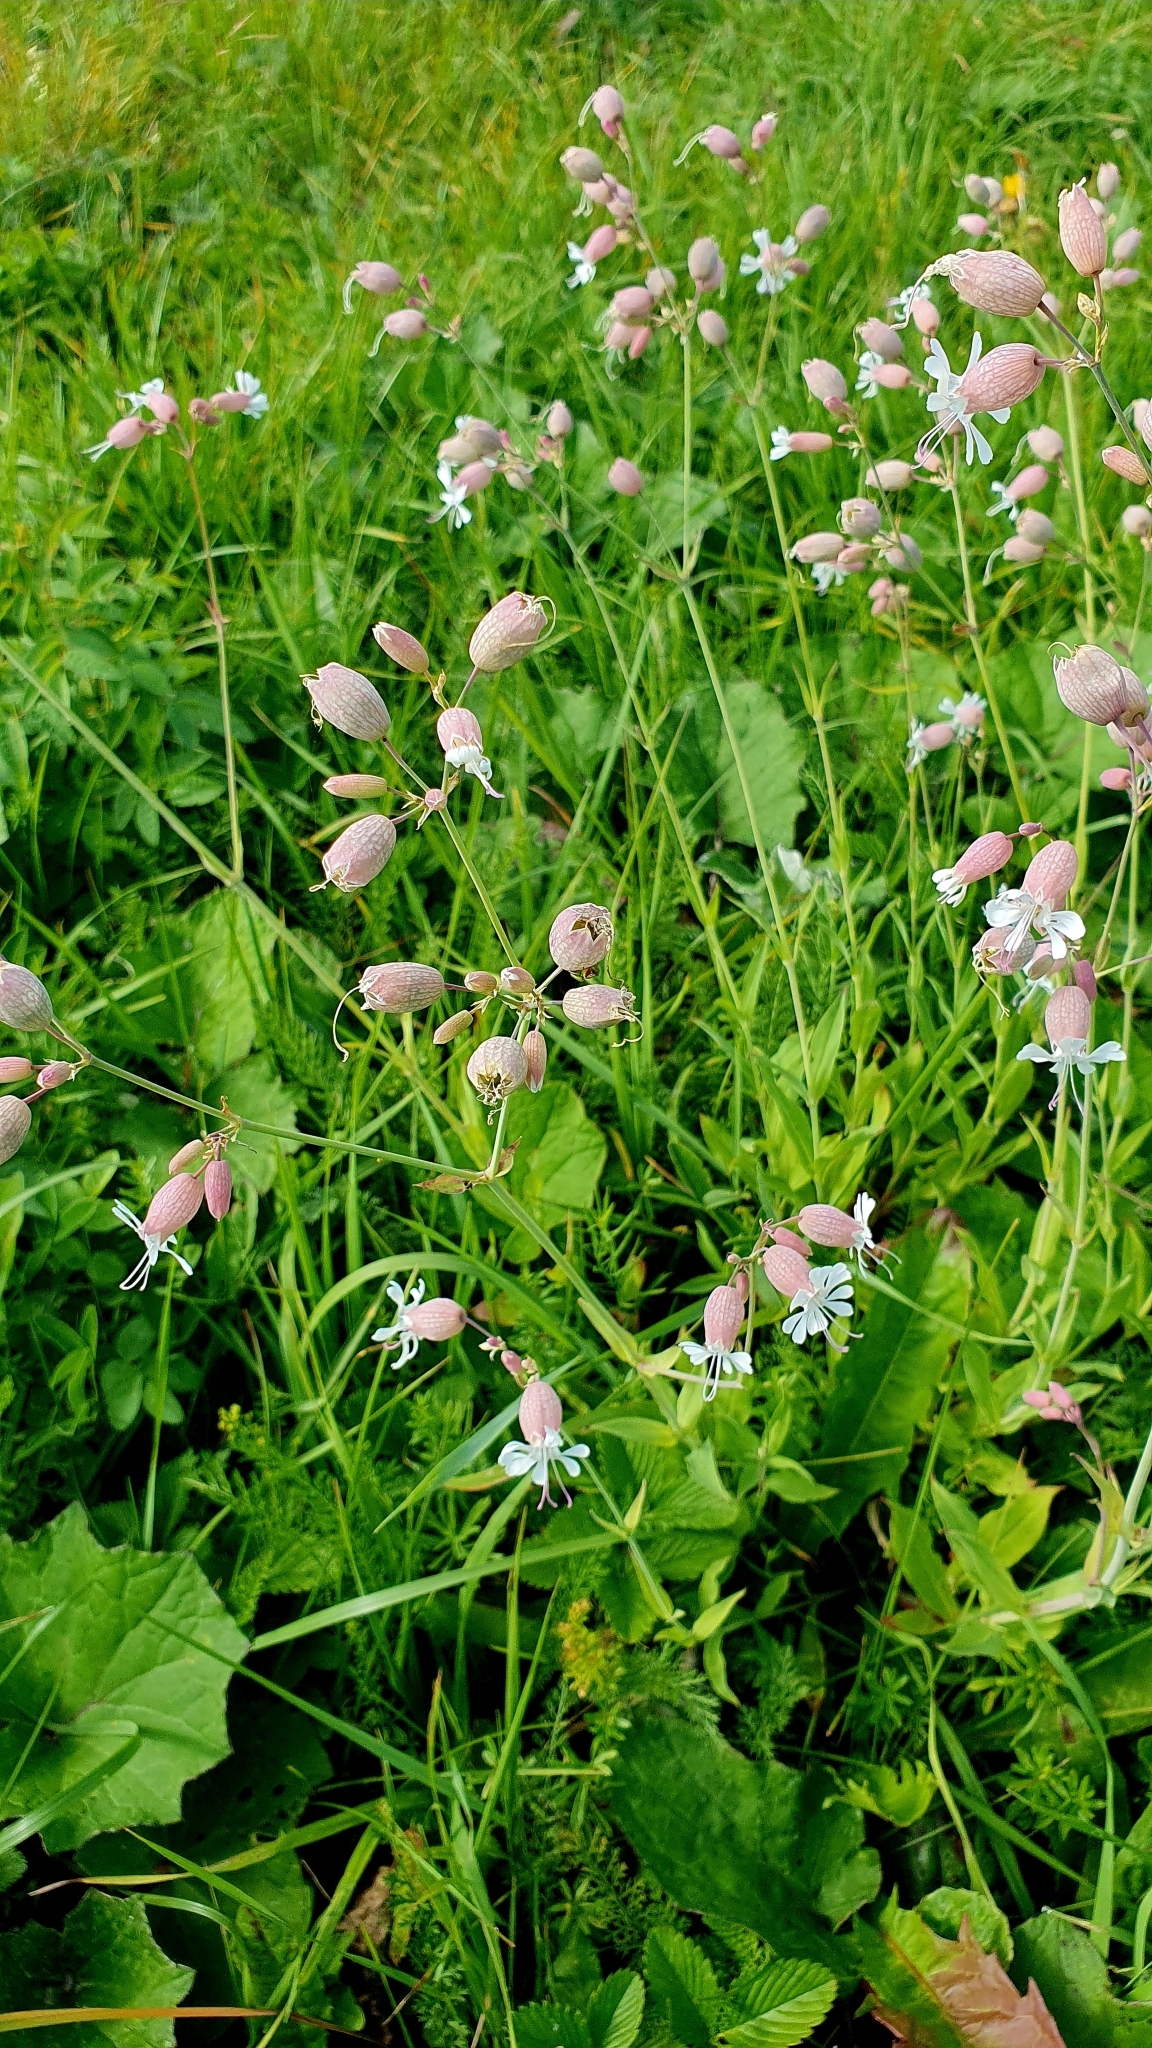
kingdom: Plantae
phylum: Tracheophyta
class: Magnoliopsida
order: Caryophyllales
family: Caryophyllaceae
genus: Silene
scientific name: Silene vulgaris
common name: Bladder campion
